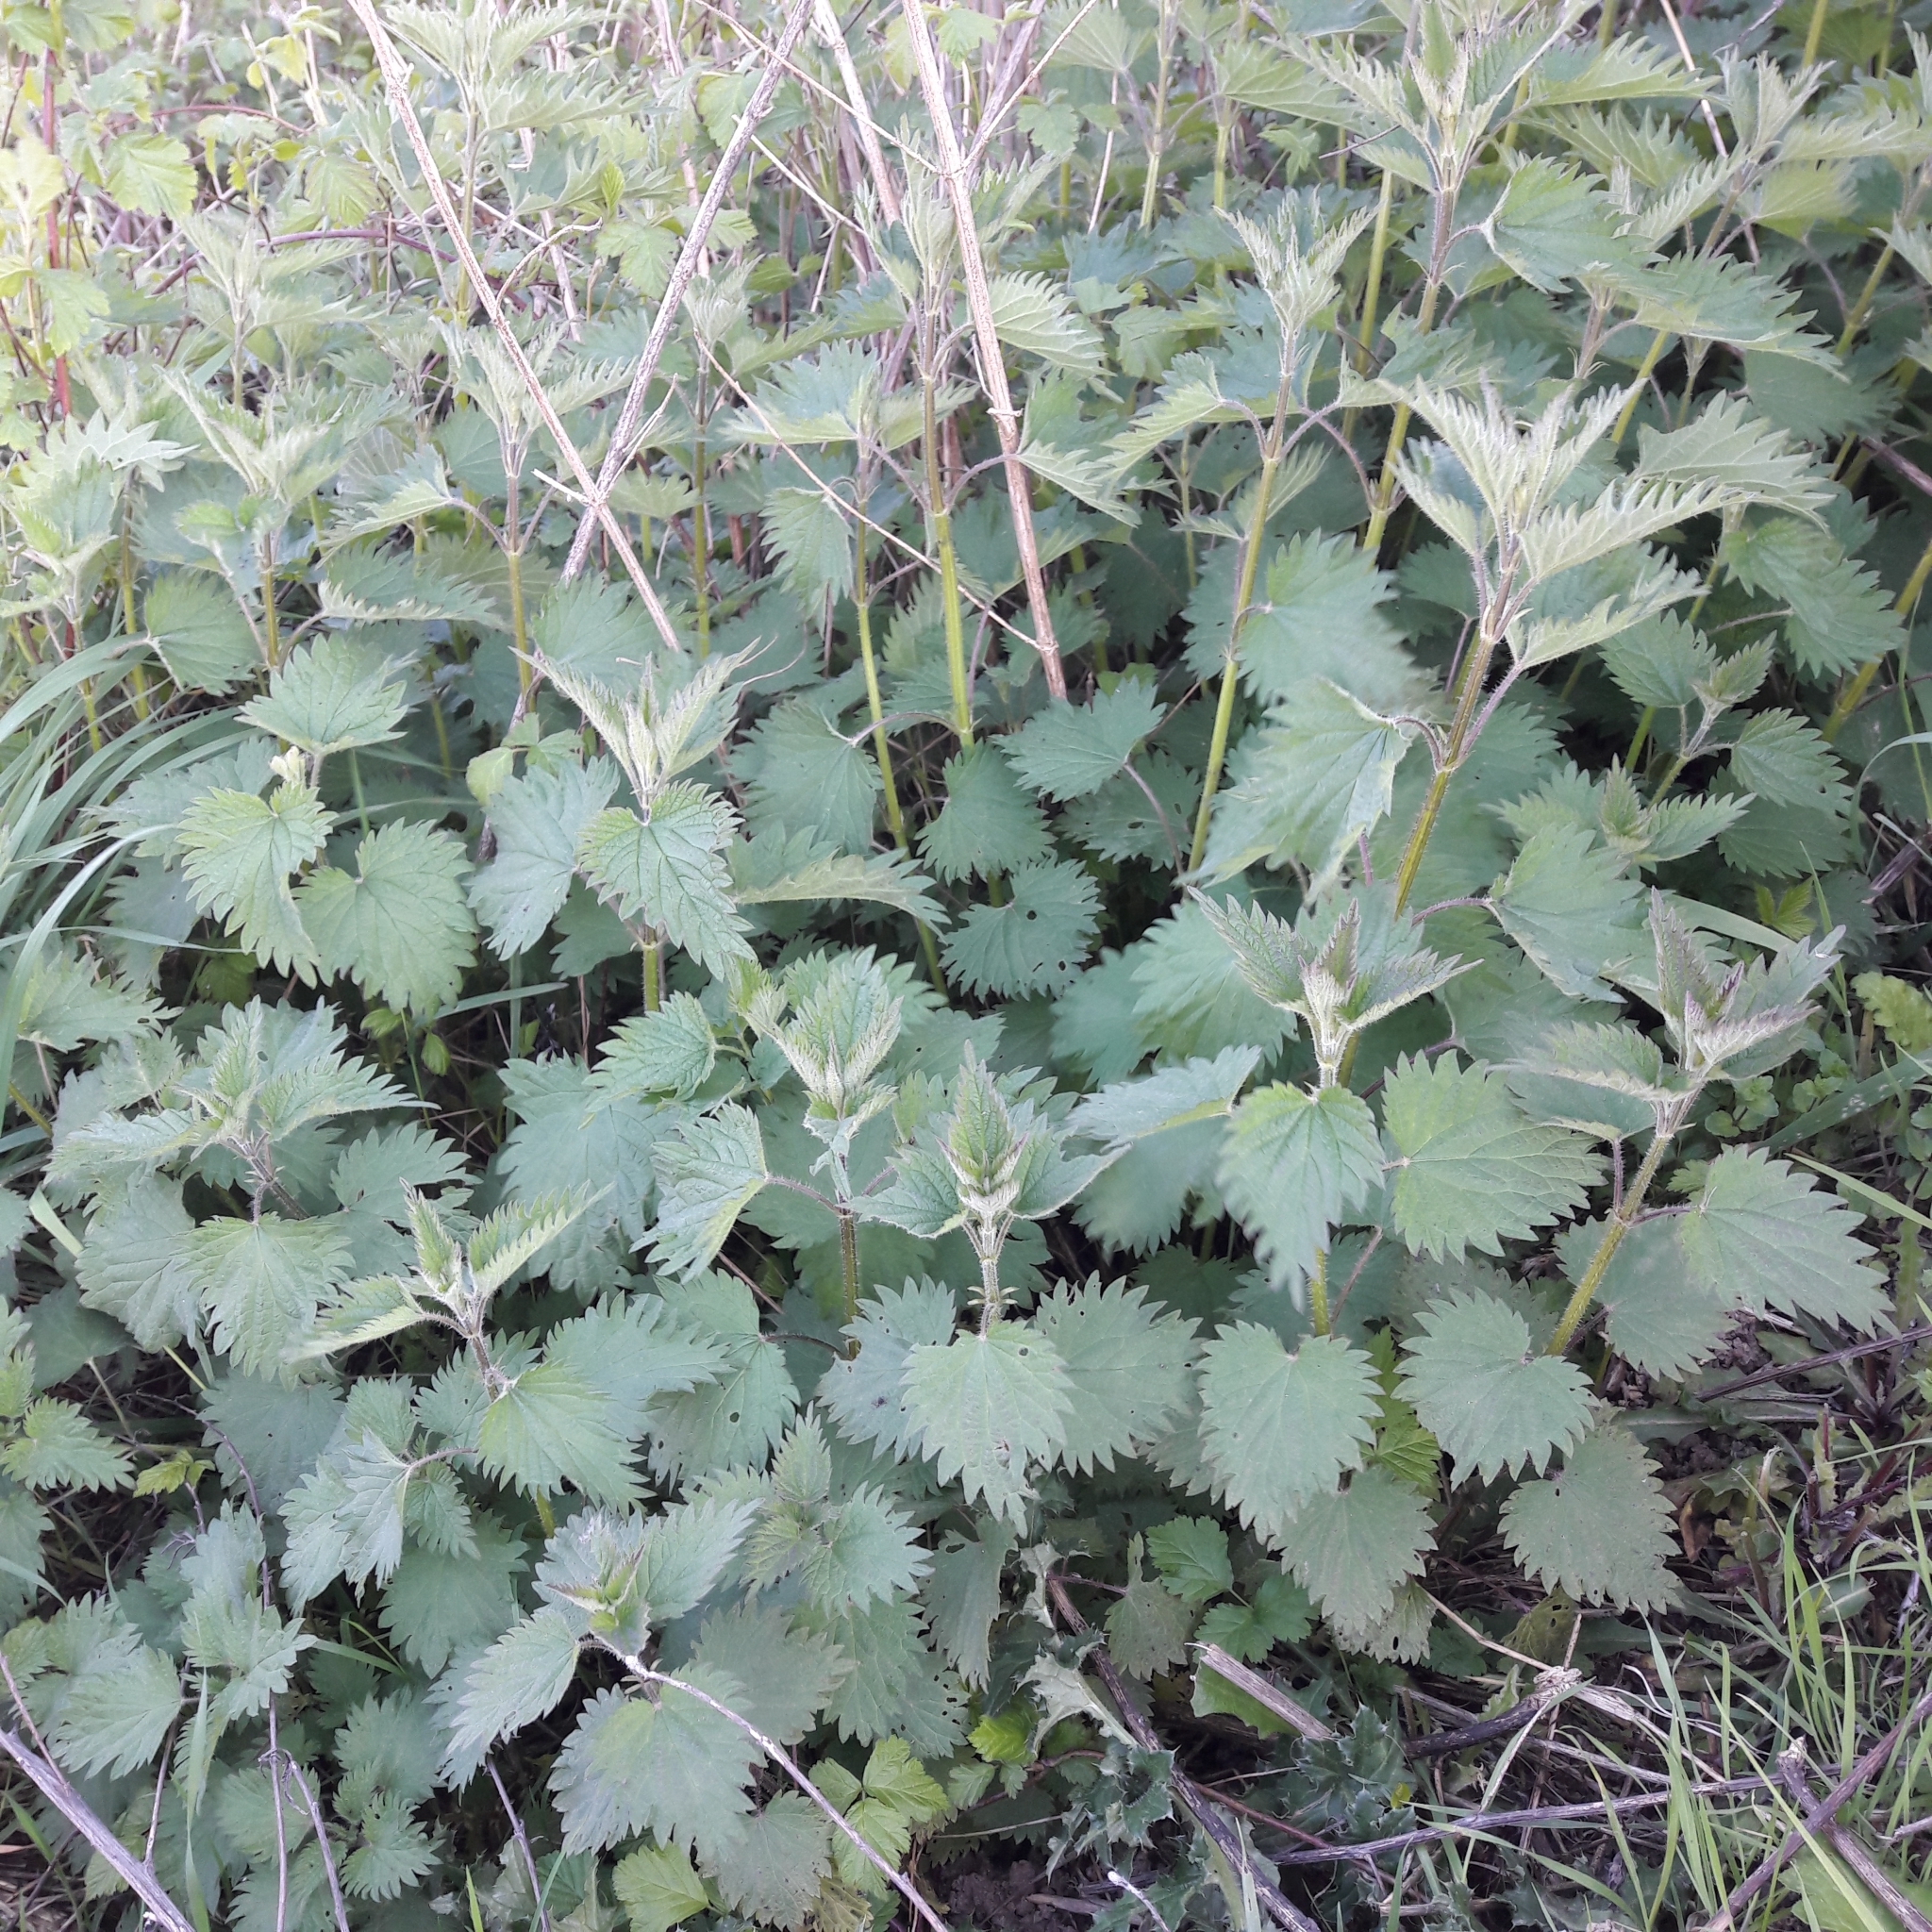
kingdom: Plantae
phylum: Tracheophyta
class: Magnoliopsida
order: Rosales
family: Urticaceae
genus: Urtica
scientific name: Urtica dioica
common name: Common nettle
